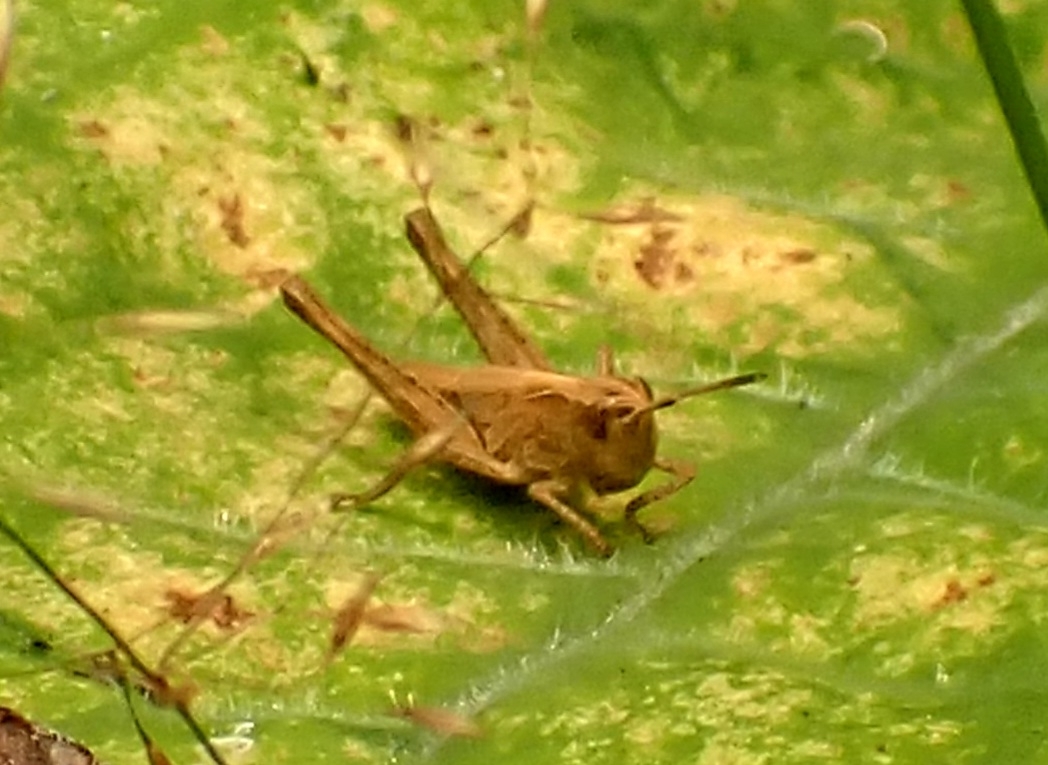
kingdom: Animalia
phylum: Arthropoda
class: Insecta
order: Orthoptera
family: Acrididae
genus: Gomphocerippus
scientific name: Gomphocerippus rufus
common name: Rufous grasshopper
